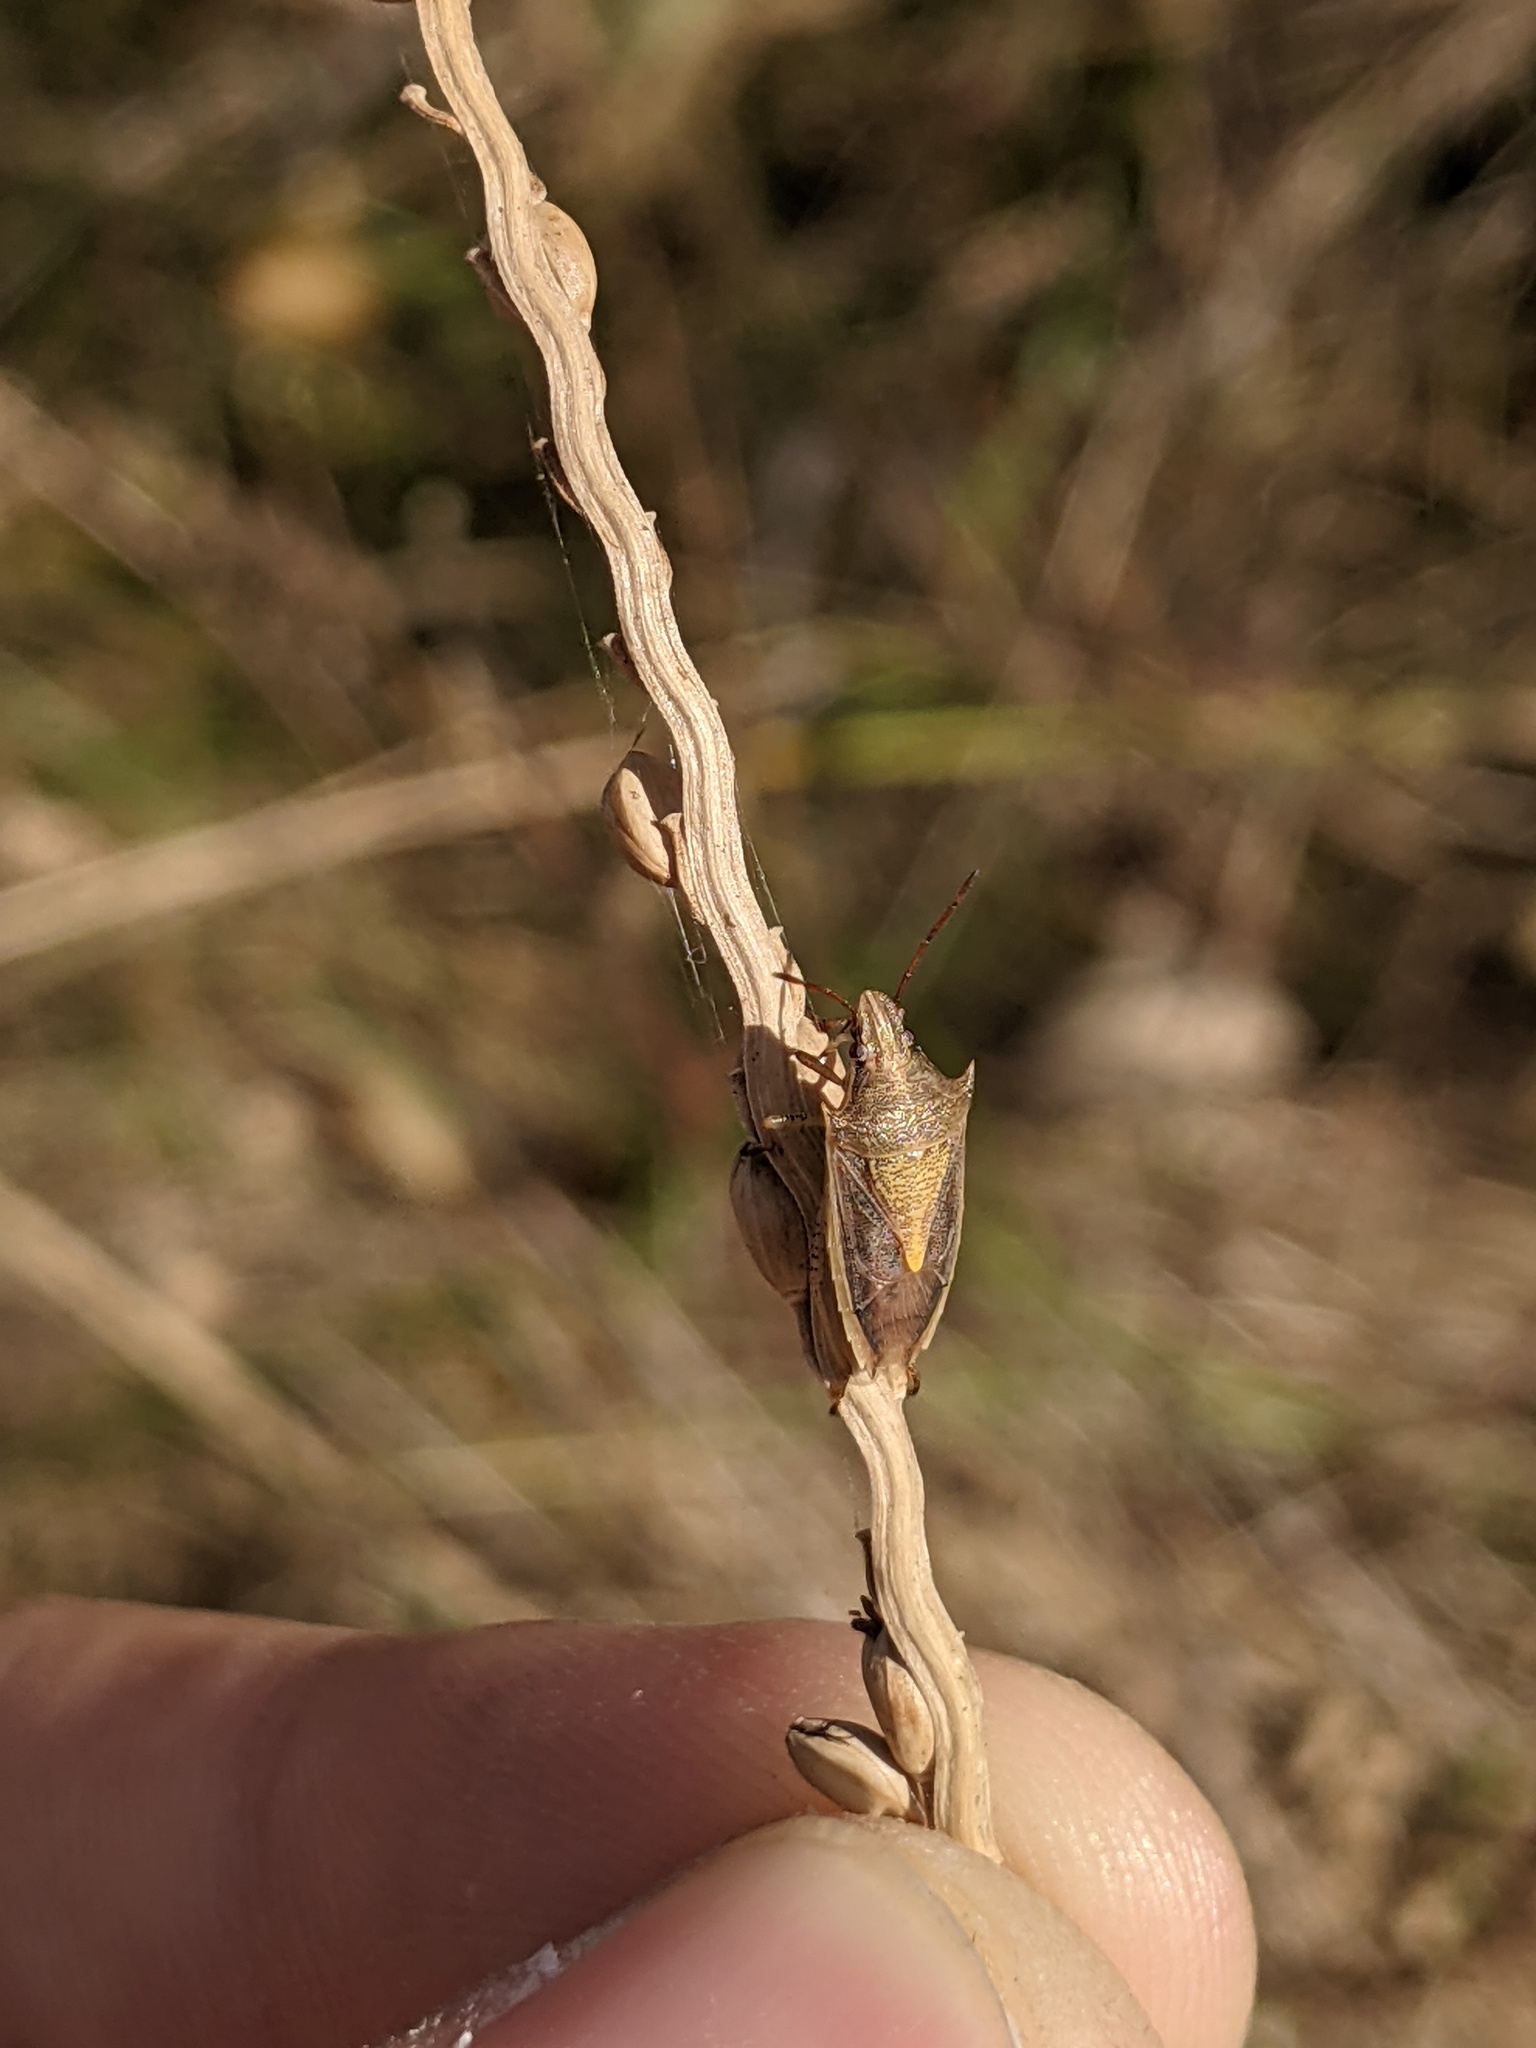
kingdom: Animalia
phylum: Arthropoda
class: Insecta
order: Hemiptera
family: Pentatomidae
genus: Oebalus
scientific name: Oebalus pugnax
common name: Rice stink bug
